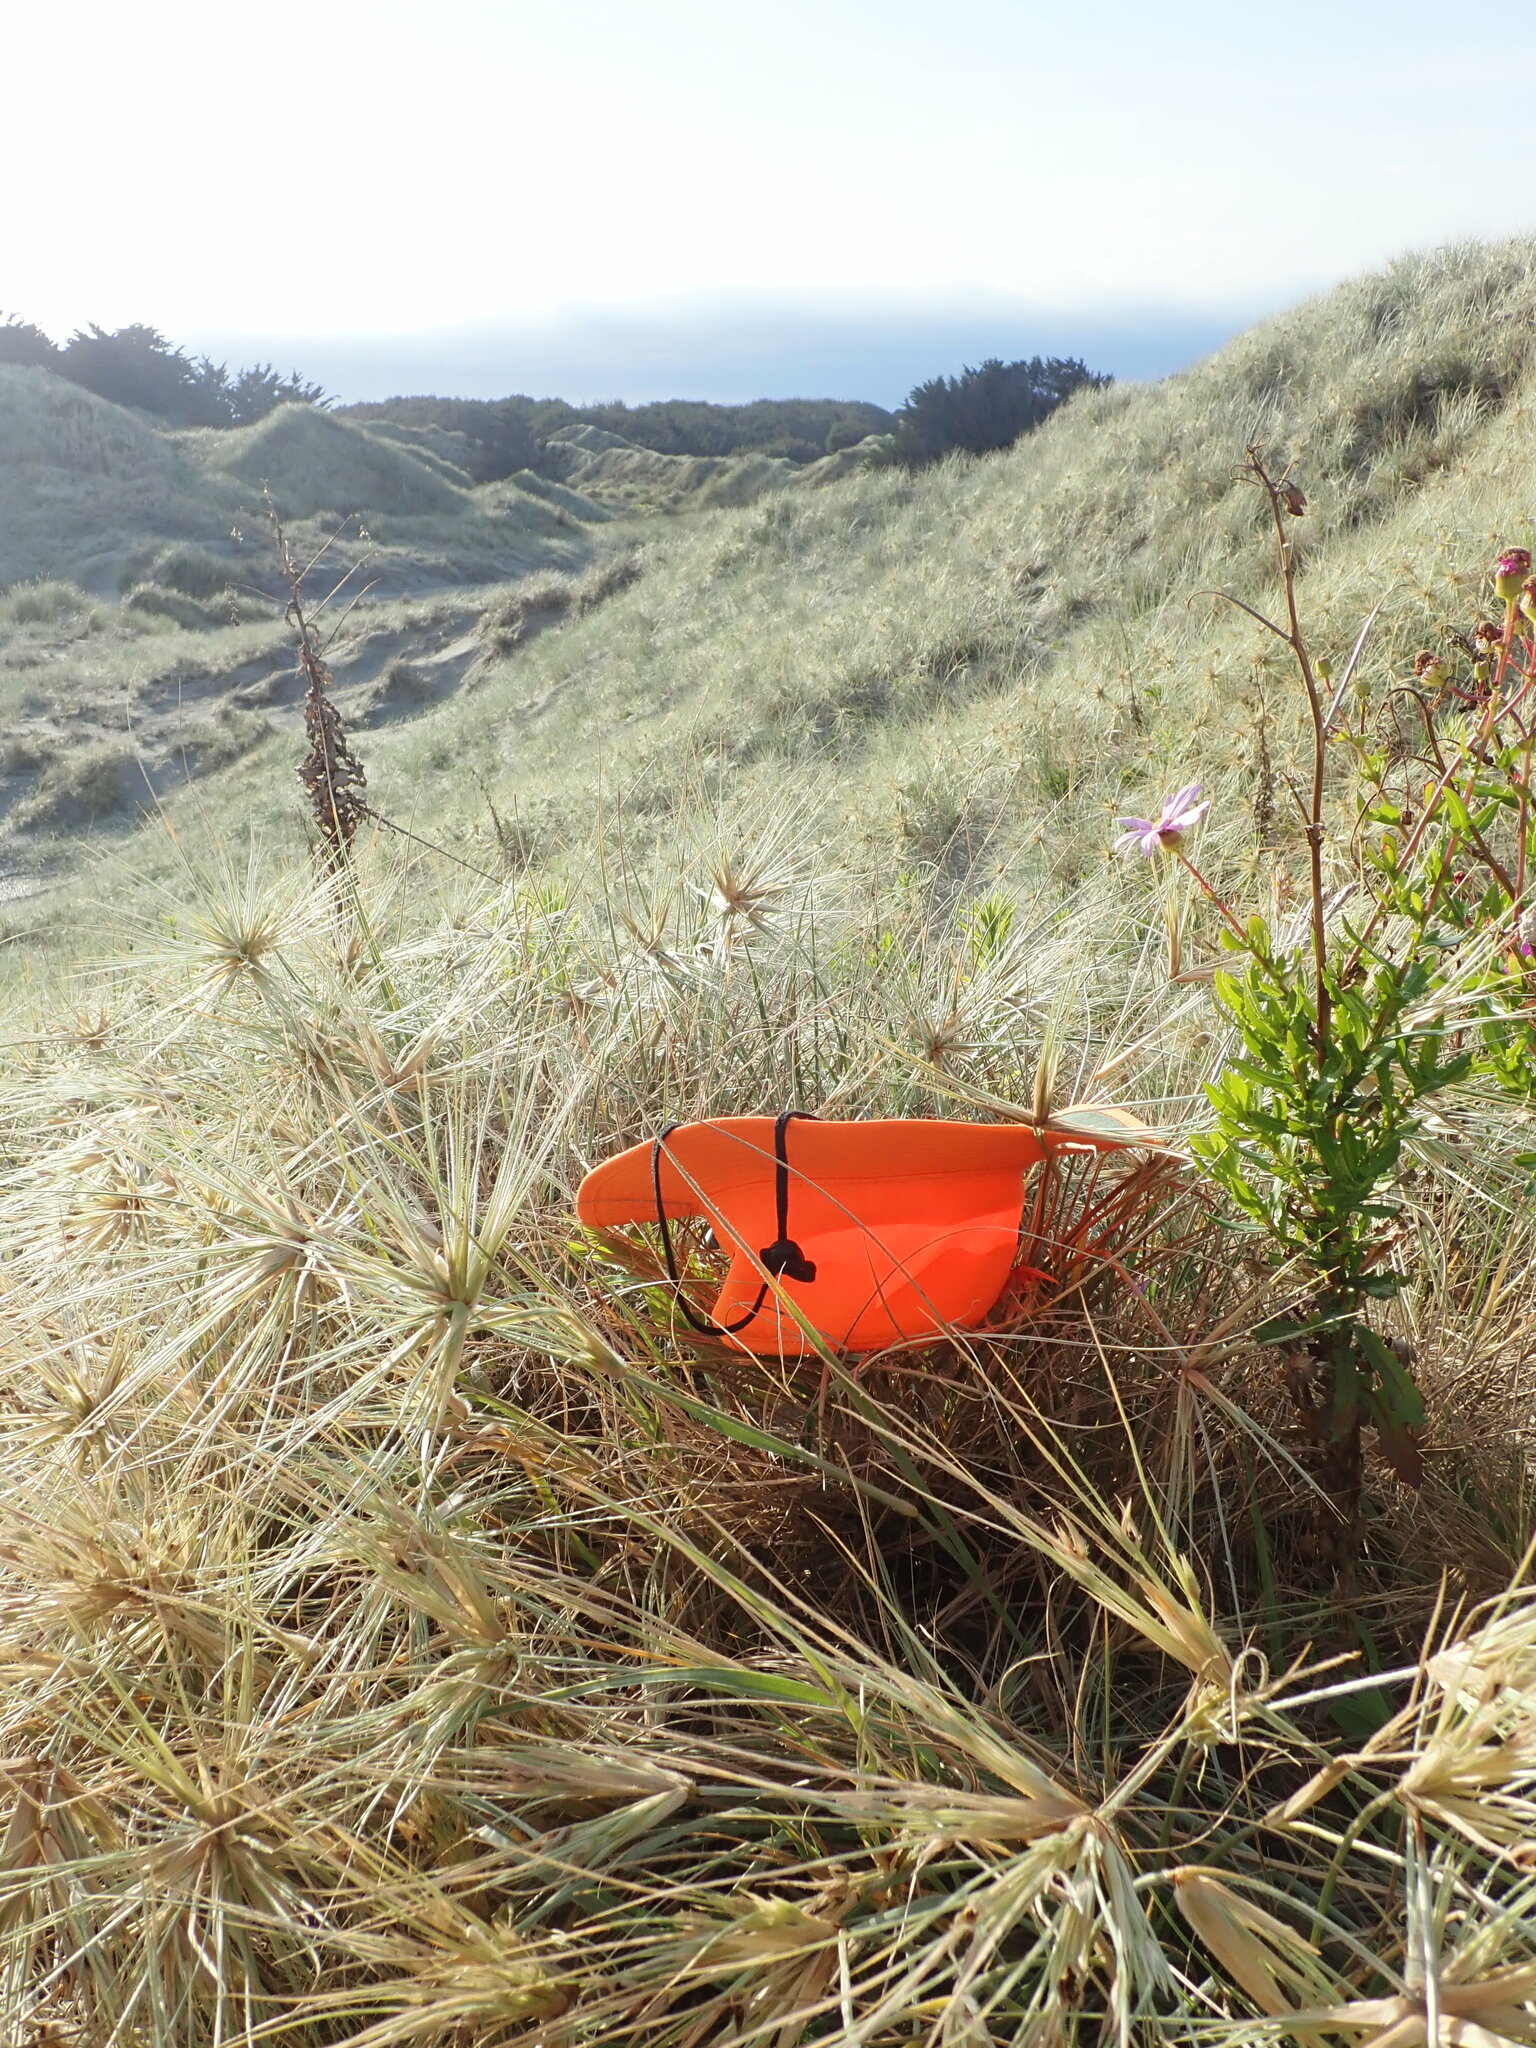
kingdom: Plantae
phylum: Tracheophyta
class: Liliopsida
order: Poales
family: Poaceae
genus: Spinifex
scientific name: Spinifex sericeus
